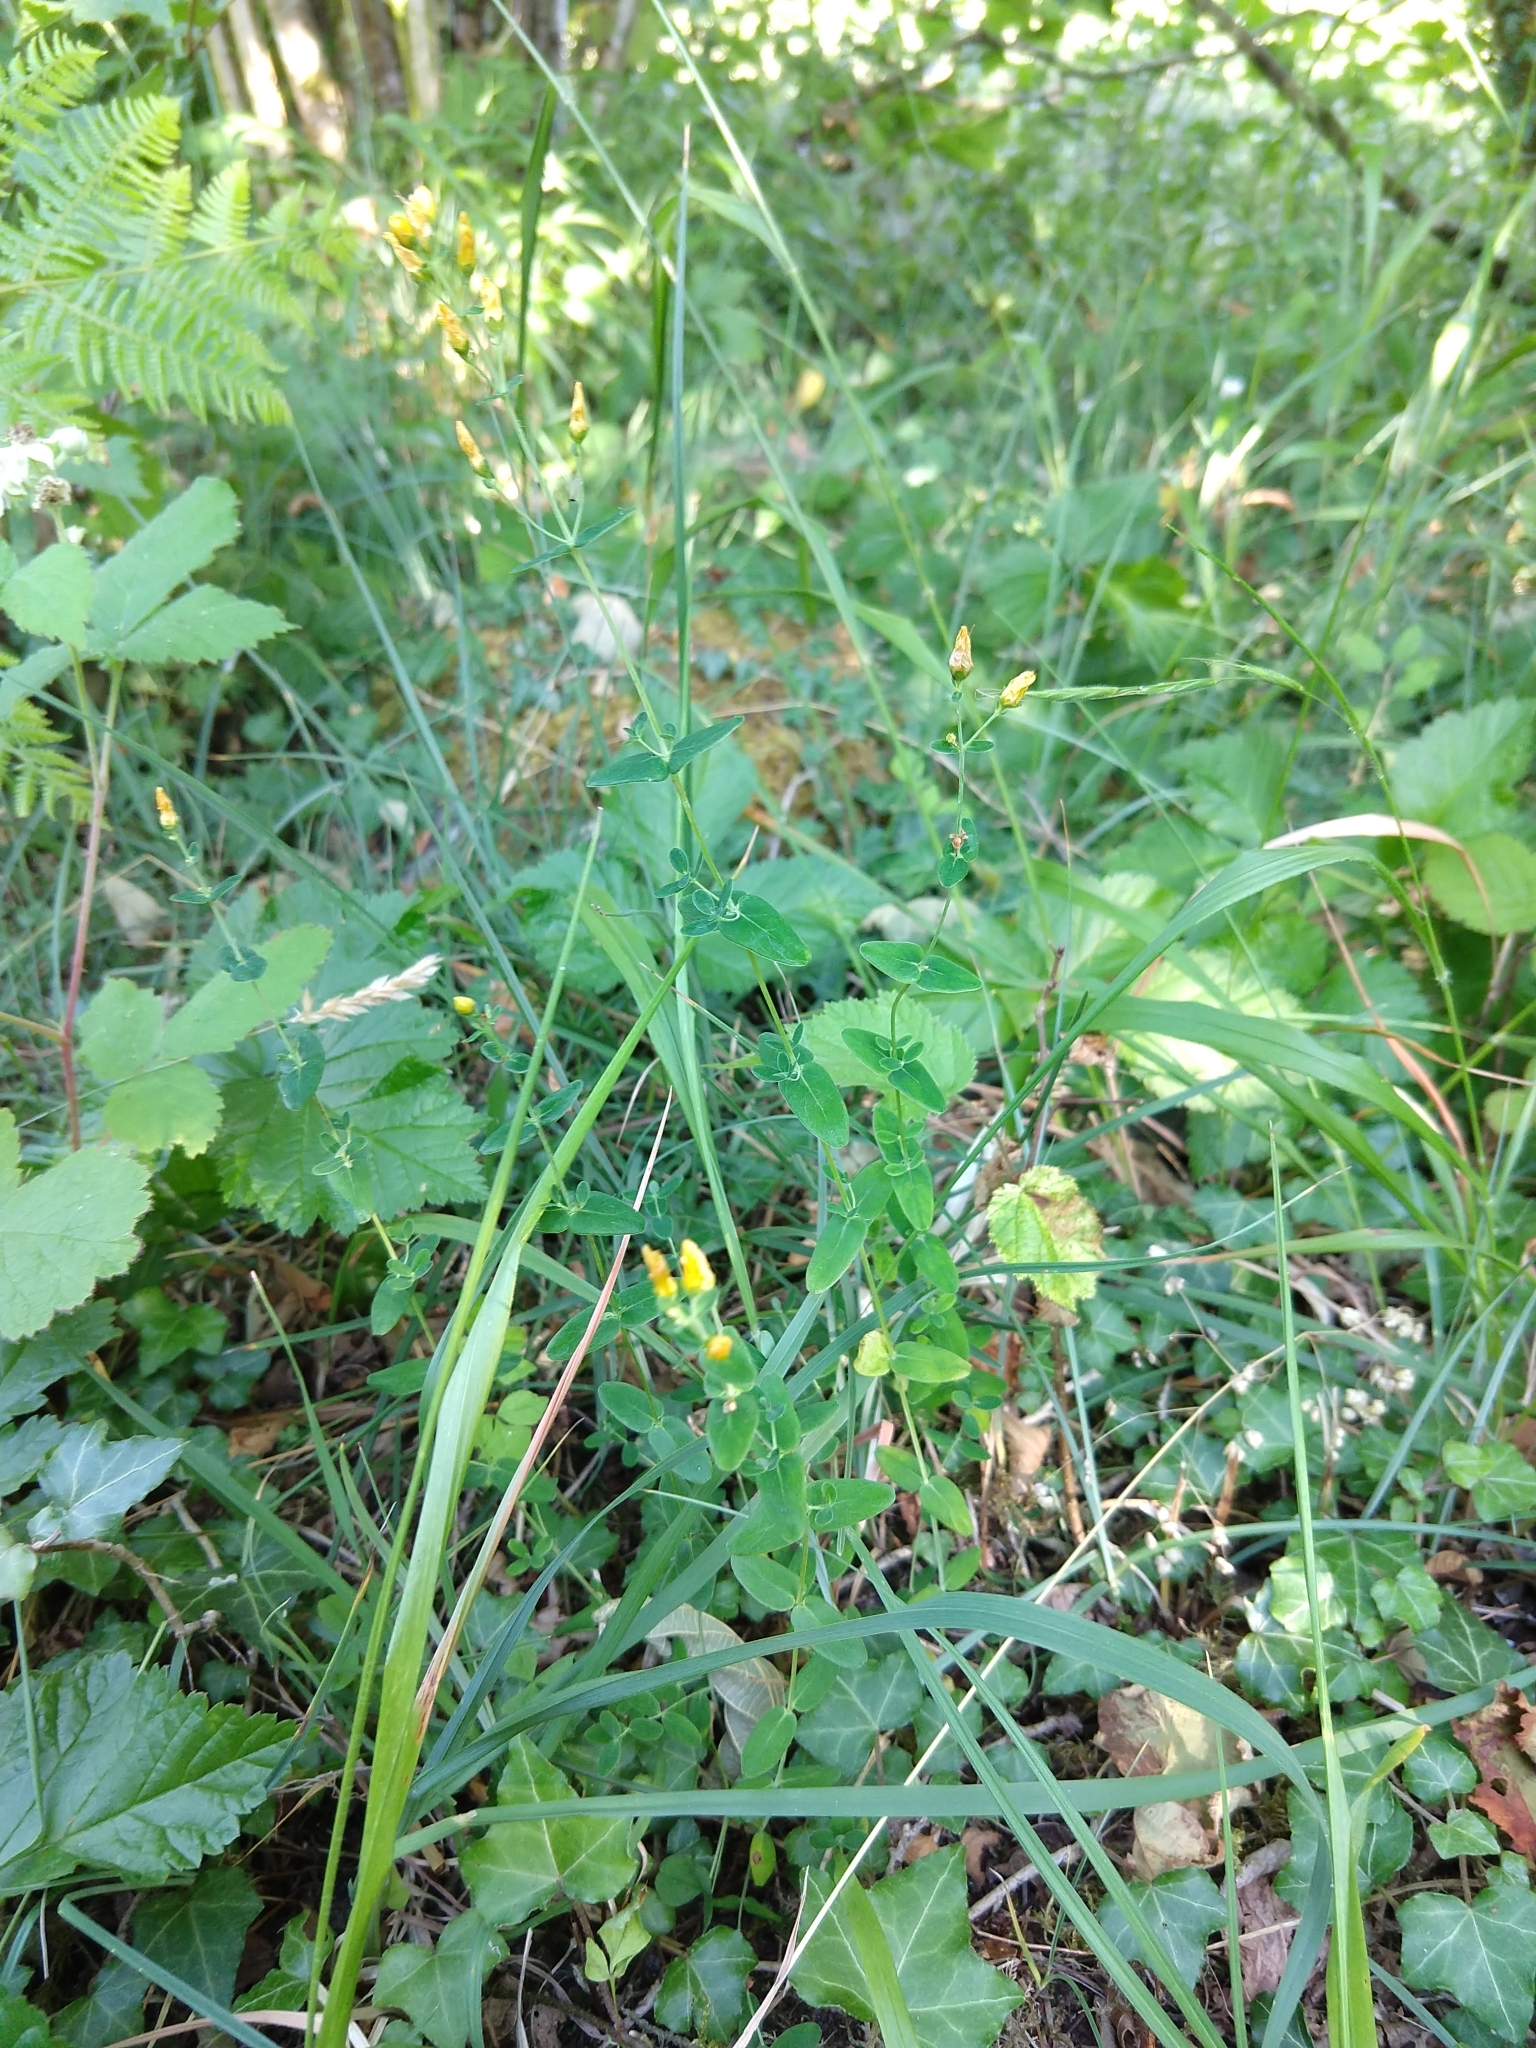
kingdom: Plantae
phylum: Tracheophyta
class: Magnoliopsida
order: Malpighiales
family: Hypericaceae
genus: Hypericum
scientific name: Hypericum pulchrum
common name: Slender st. john's-wort
